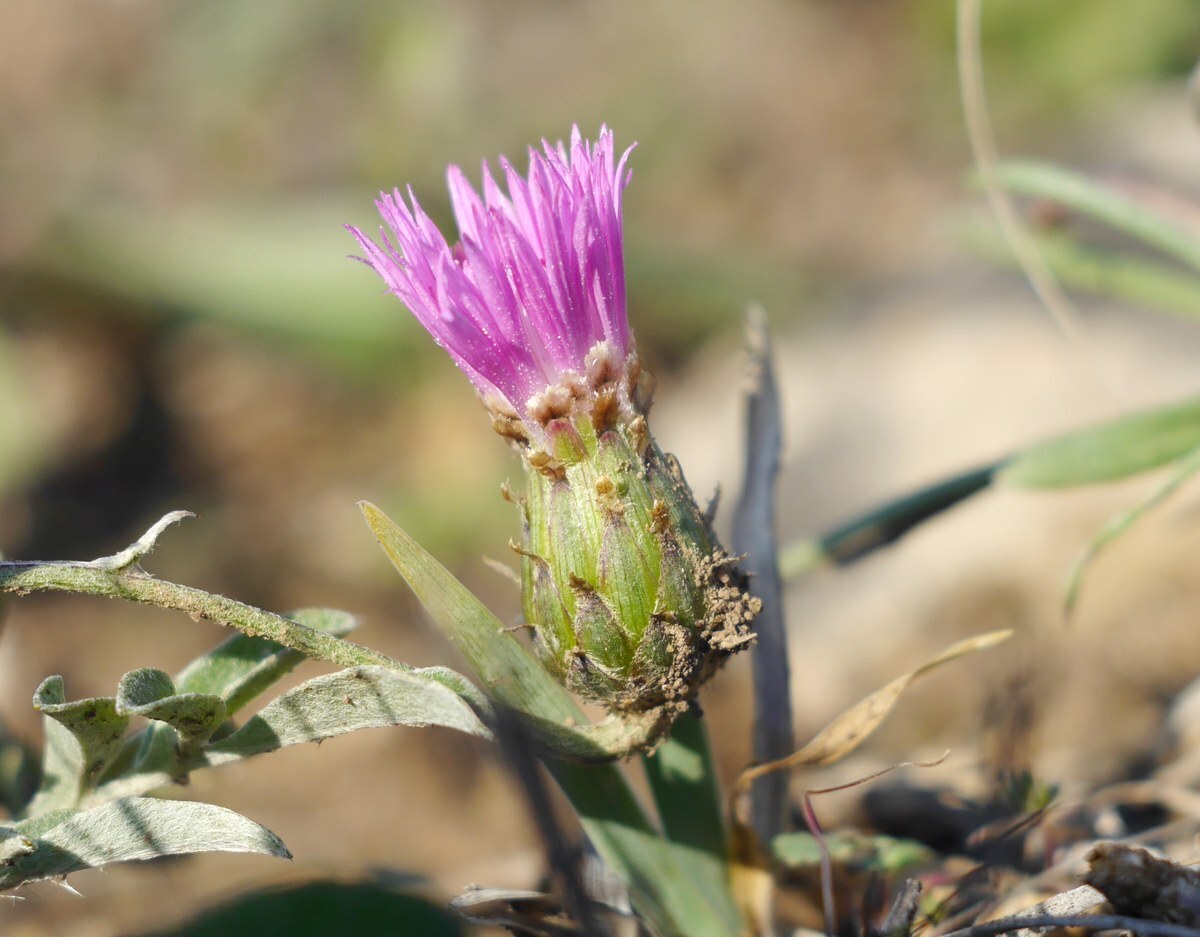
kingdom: Plantae
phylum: Tracheophyta
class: Magnoliopsida
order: Asterales
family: Asteraceae
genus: Psephellus
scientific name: Psephellus marschallianus
